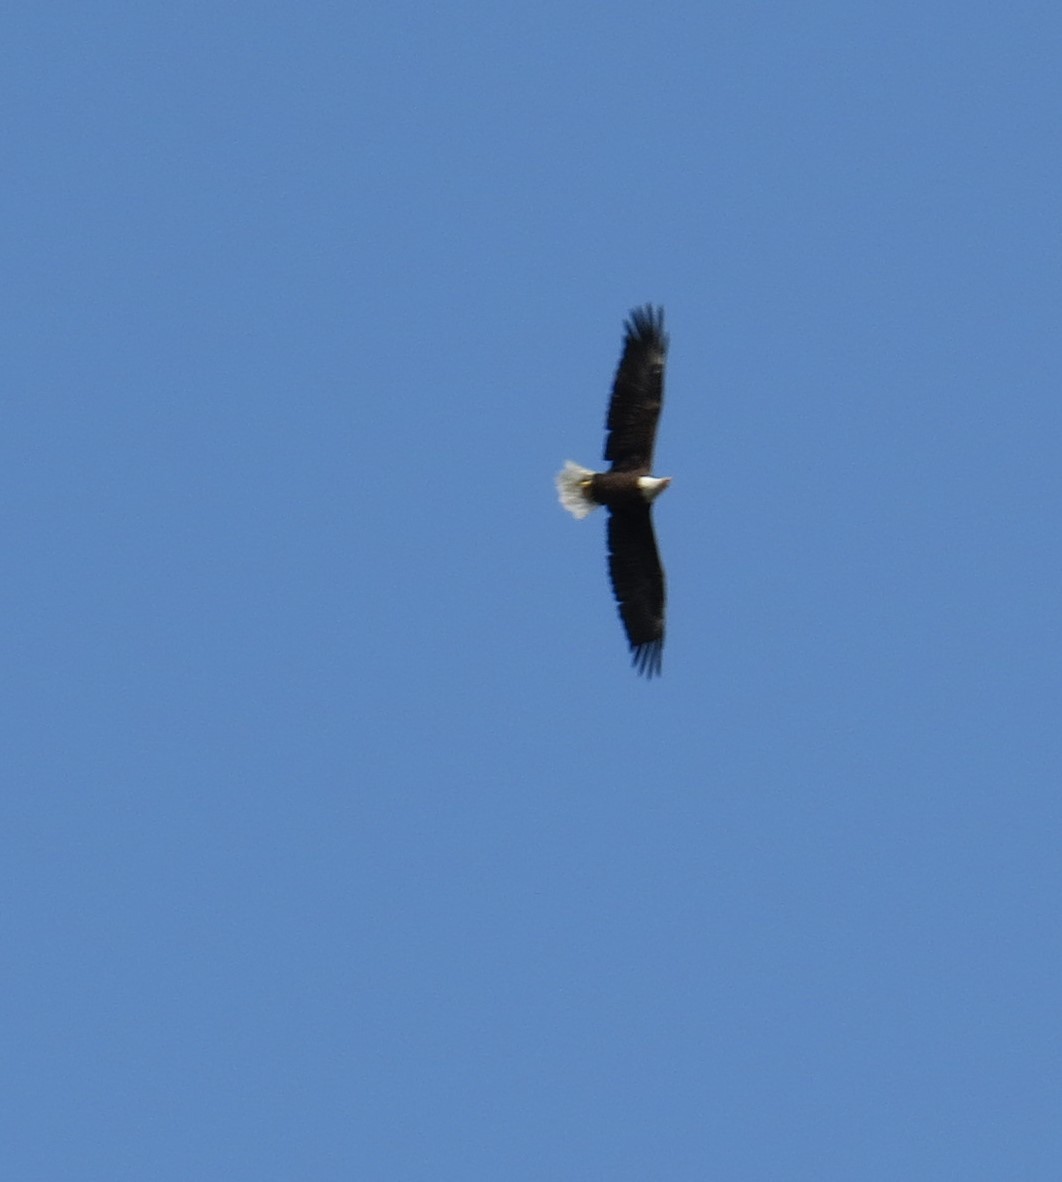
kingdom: Animalia
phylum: Chordata
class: Aves
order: Accipitriformes
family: Accipitridae
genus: Haliaeetus
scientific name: Haliaeetus leucocephalus
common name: Bald eagle
